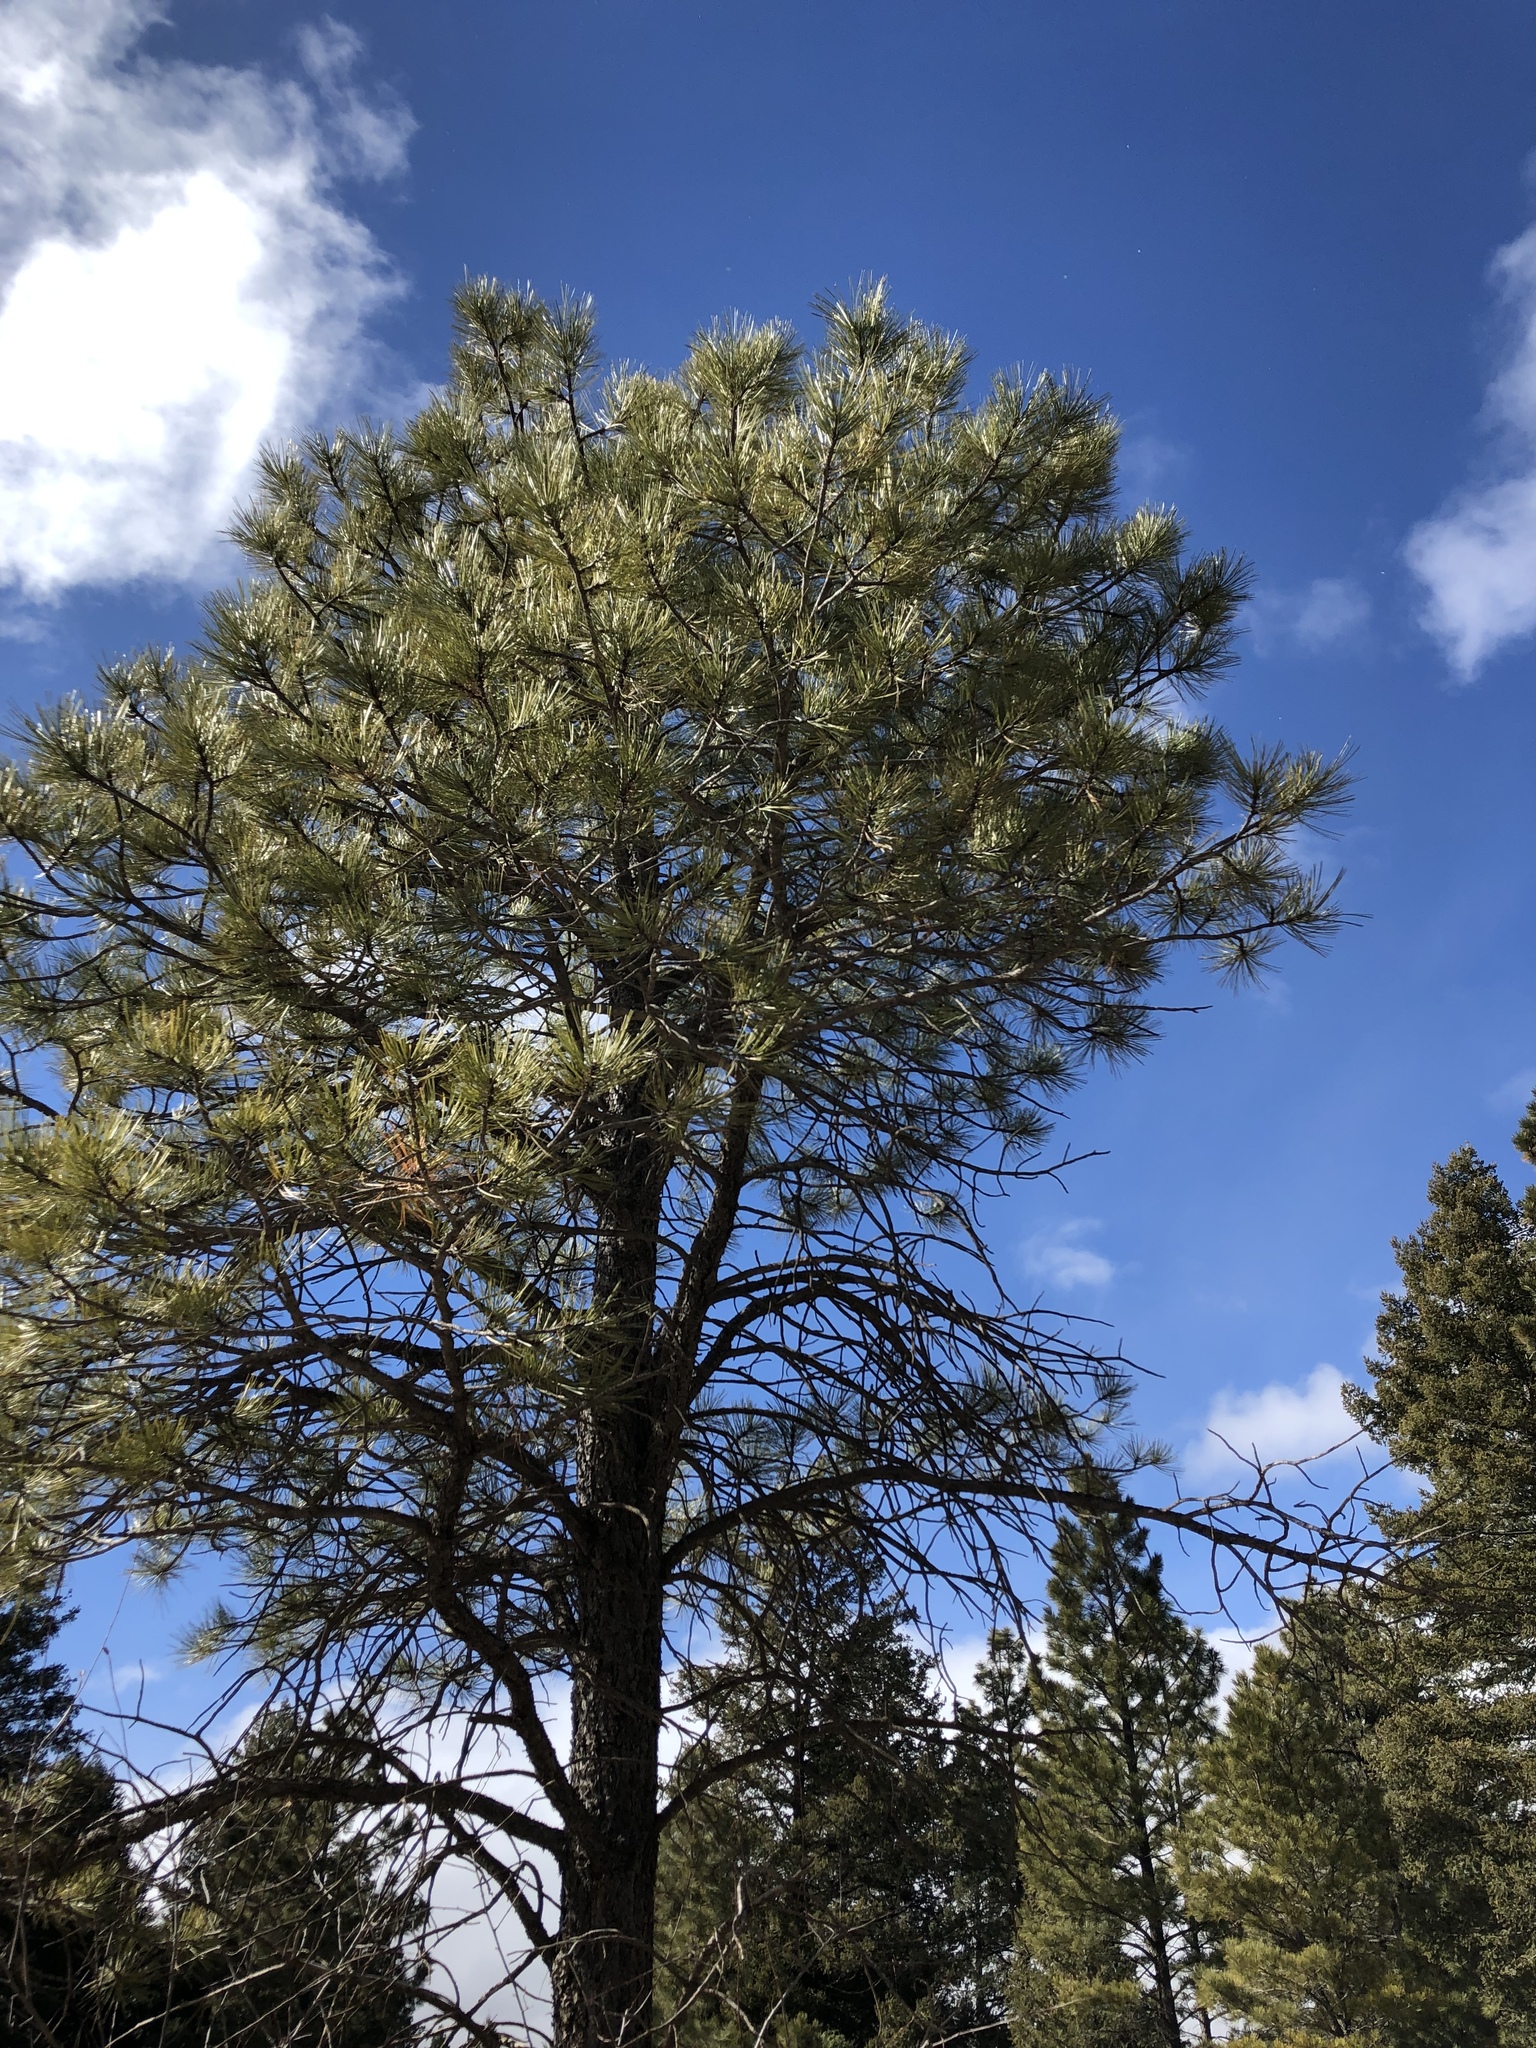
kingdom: Plantae
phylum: Tracheophyta
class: Pinopsida
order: Pinales
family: Pinaceae
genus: Pinus
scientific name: Pinus ponderosa
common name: Western yellow-pine
